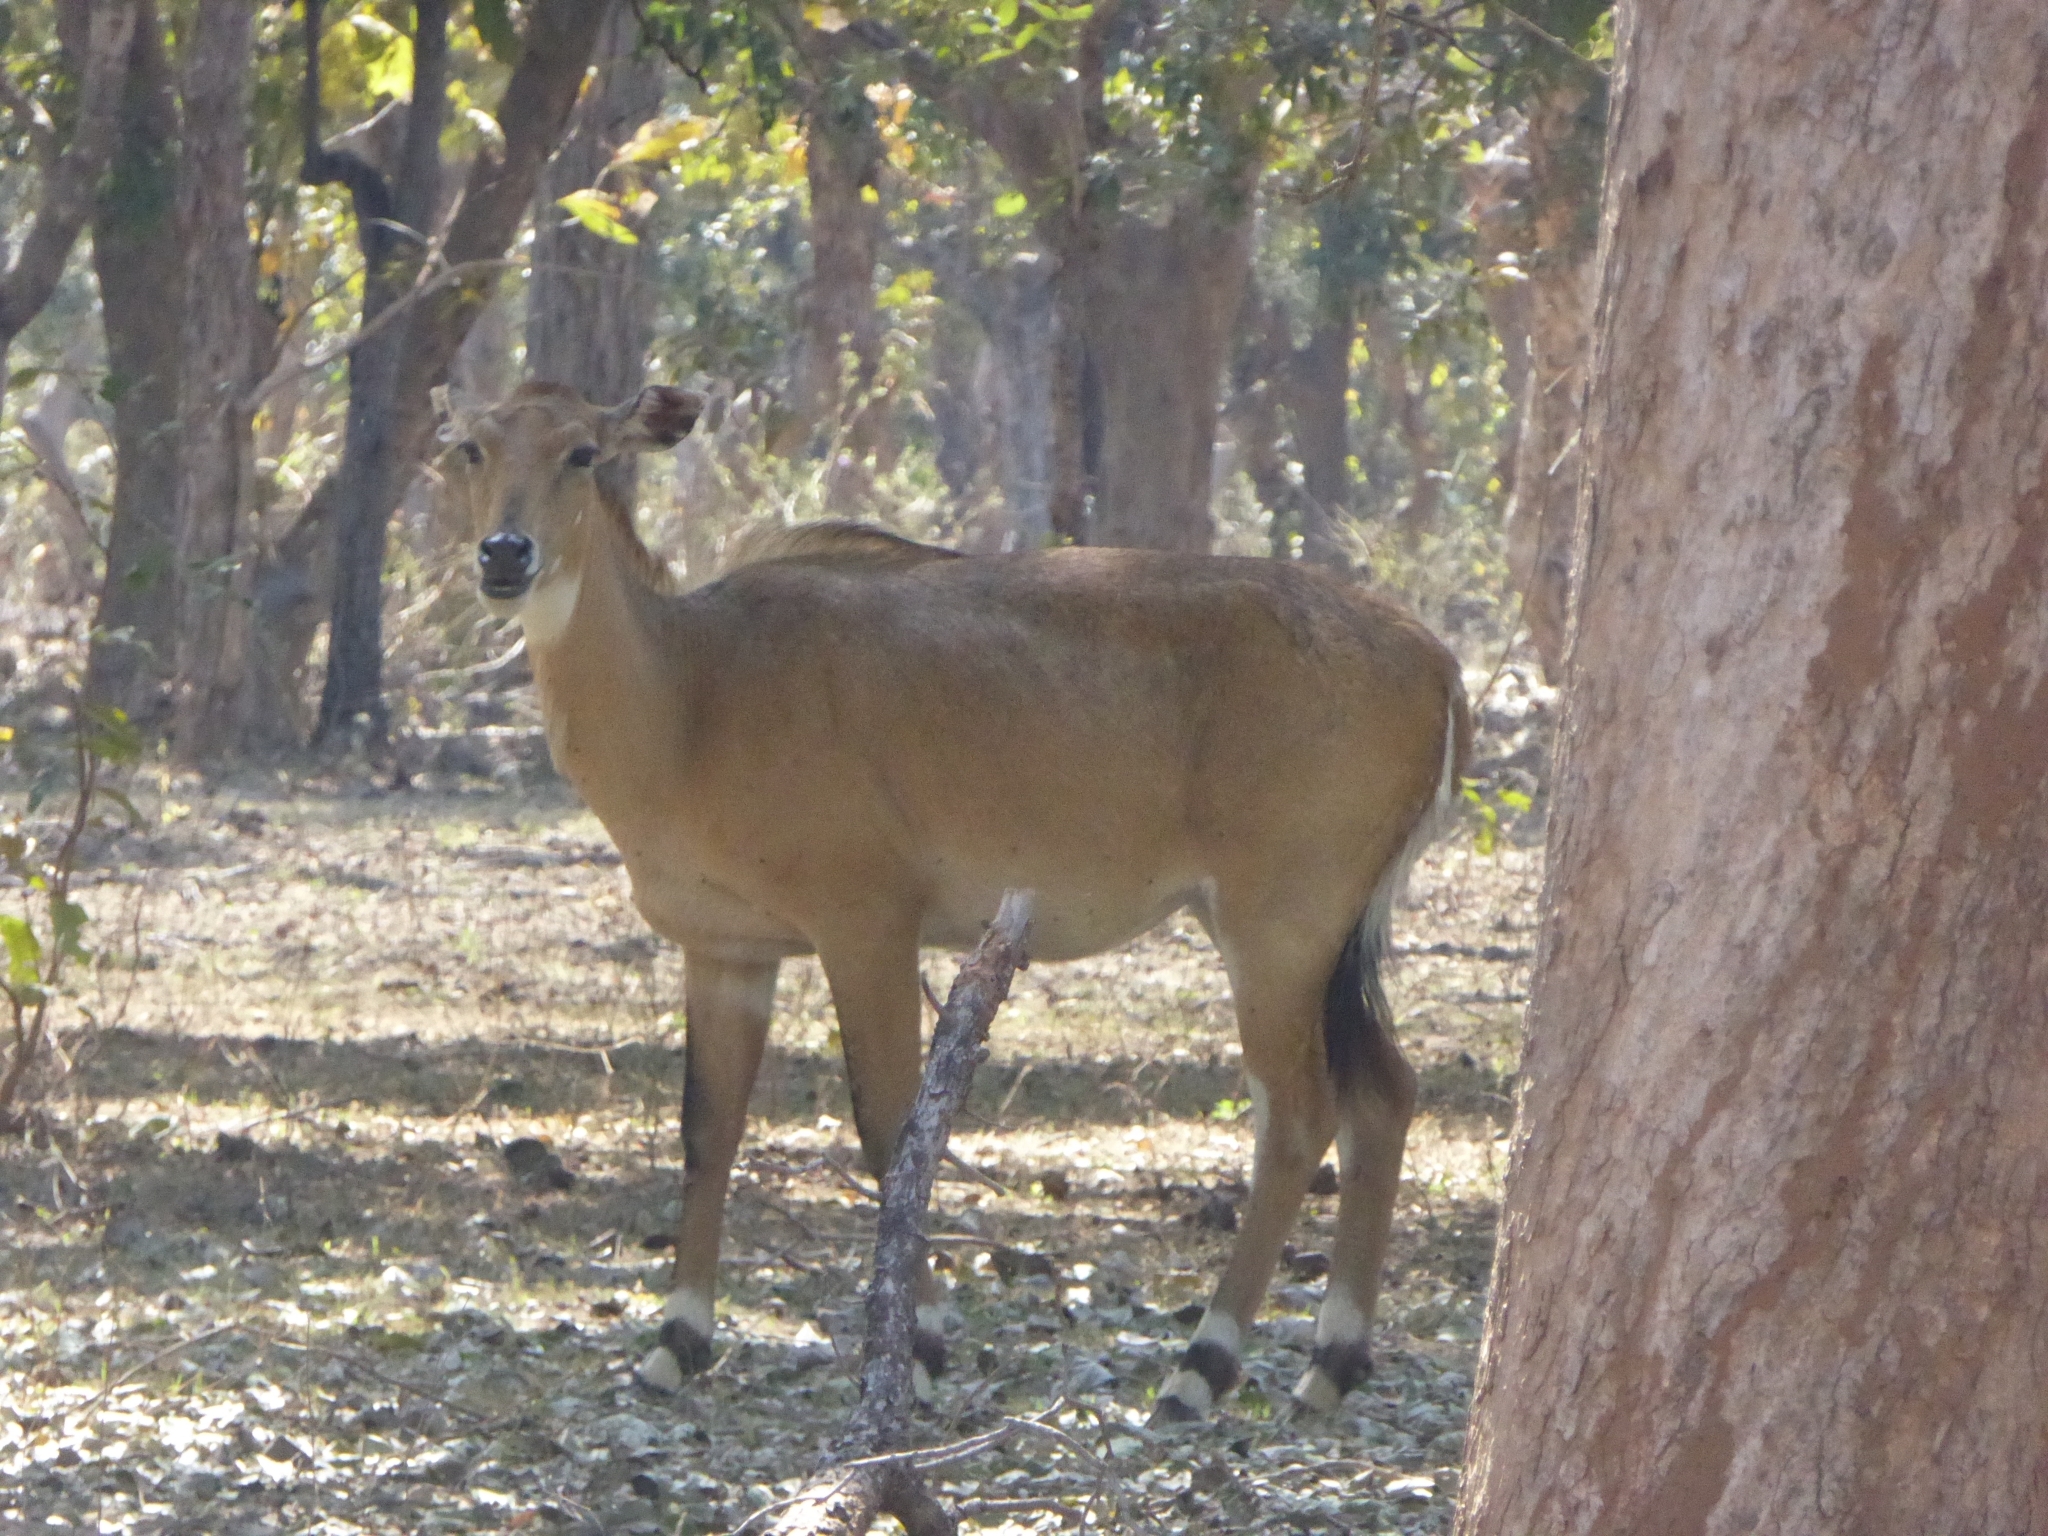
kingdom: Animalia
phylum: Chordata
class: Mammalia
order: Artiodactyla
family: Bovidae
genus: Boselaphus
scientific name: Boselaphus tragocamelus
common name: Nilgai
